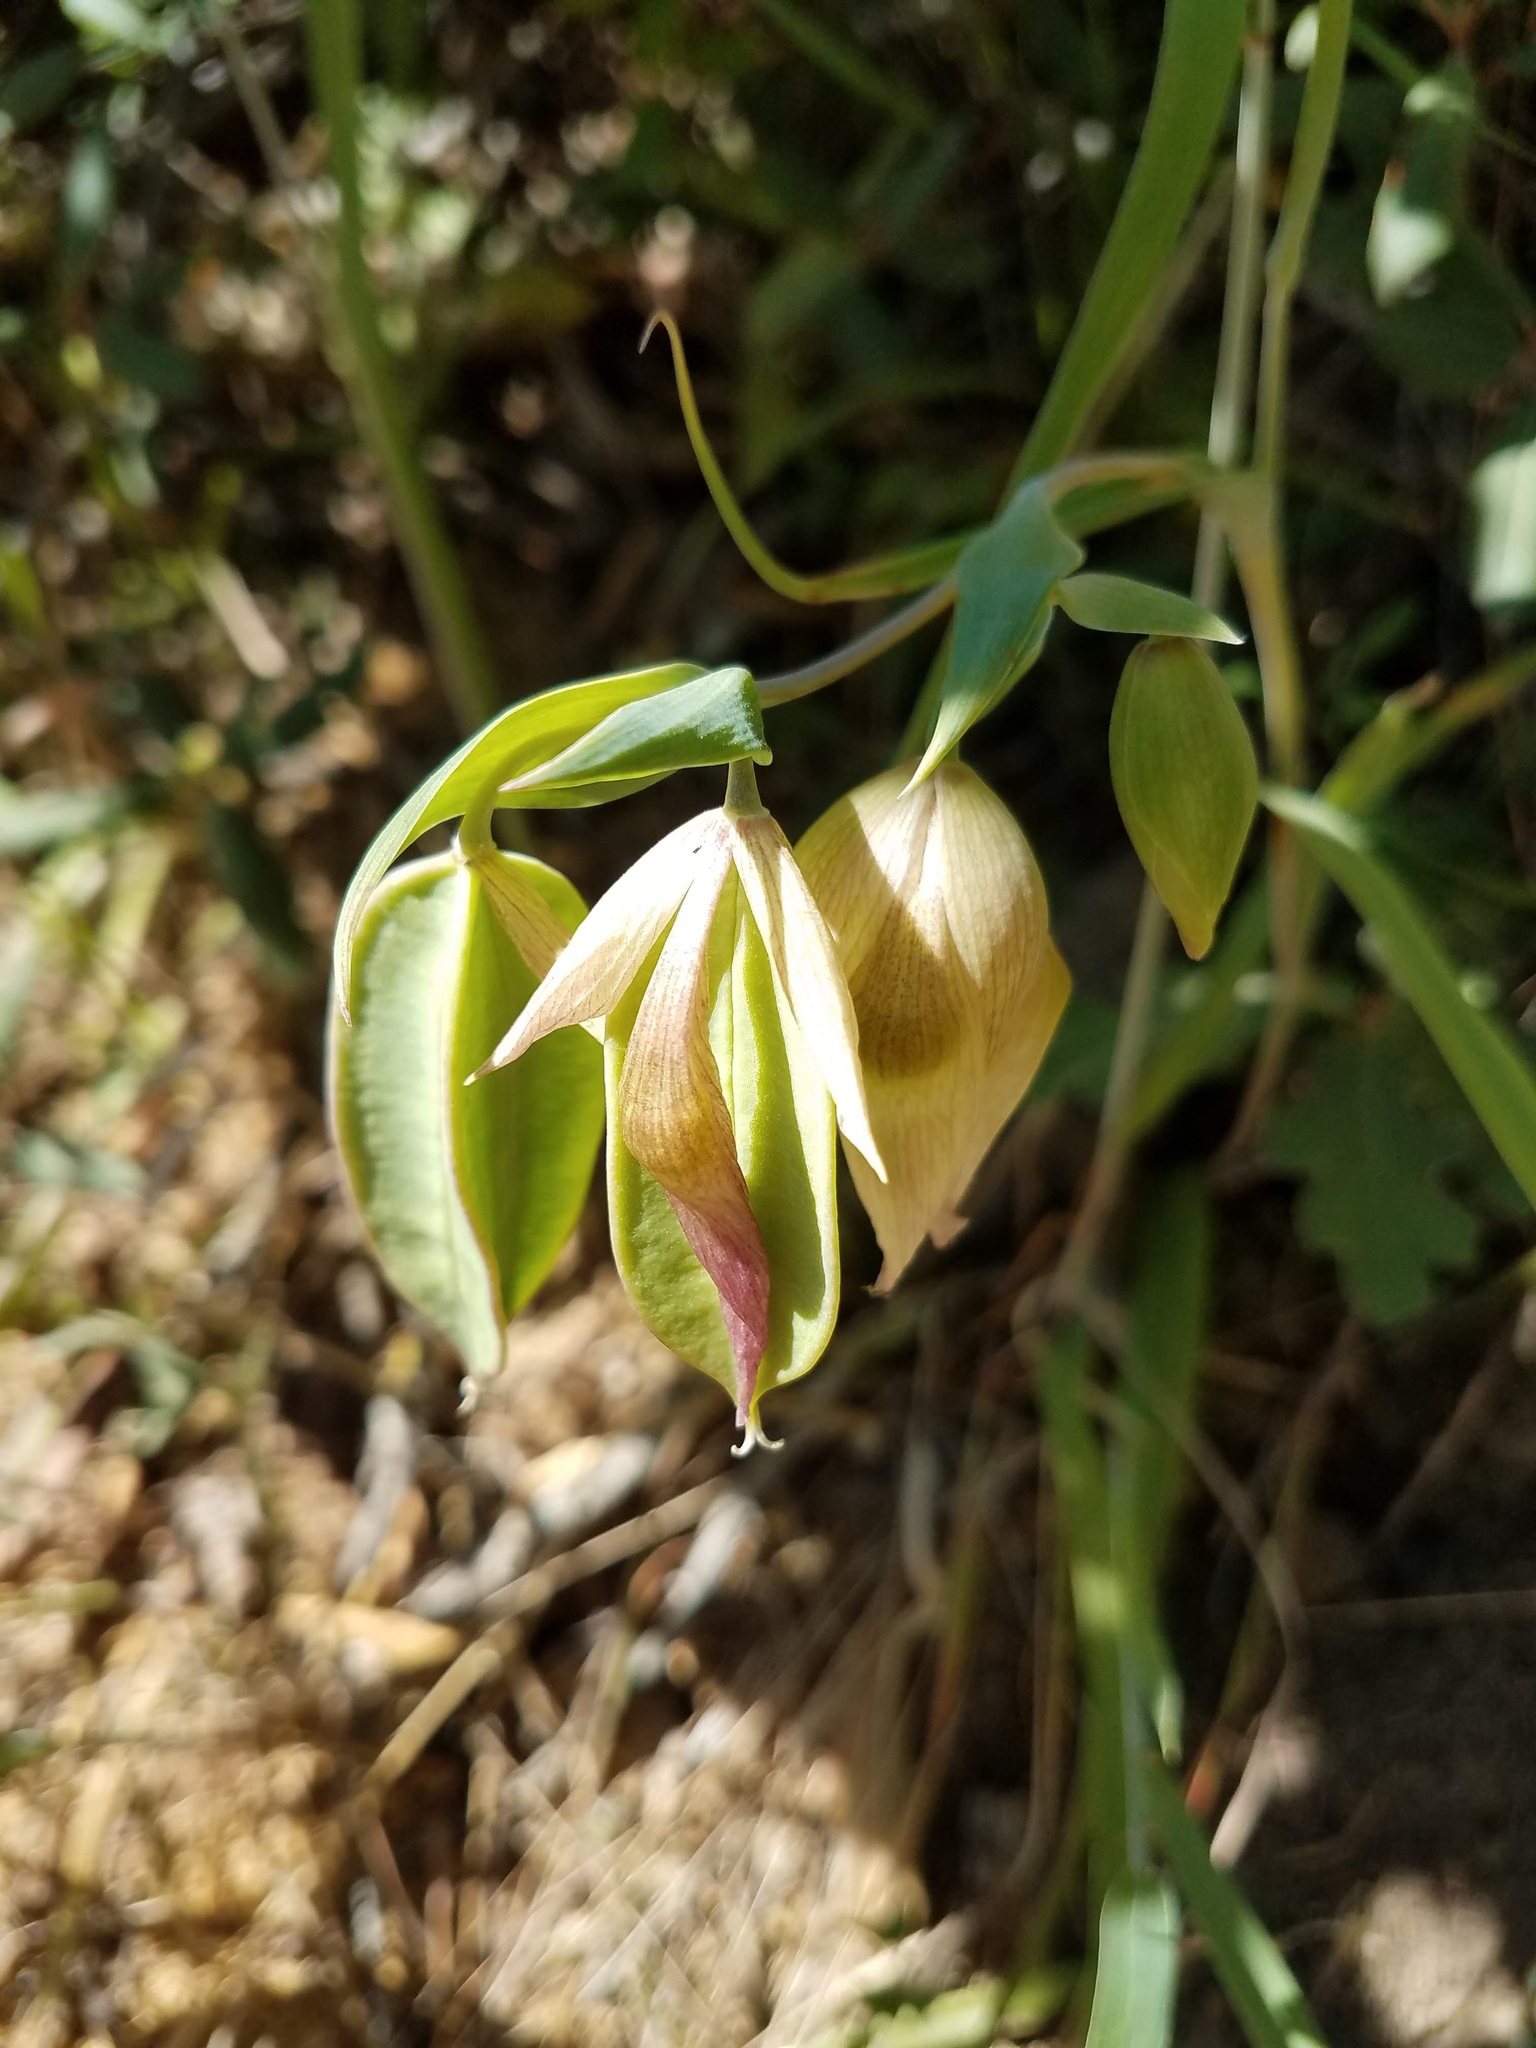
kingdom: Plantae
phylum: Tracheophyta
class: Liliopsida
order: Liliales
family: Liliaceae
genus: Calochortus
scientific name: Calochortus albus
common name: Fairy-lantern
